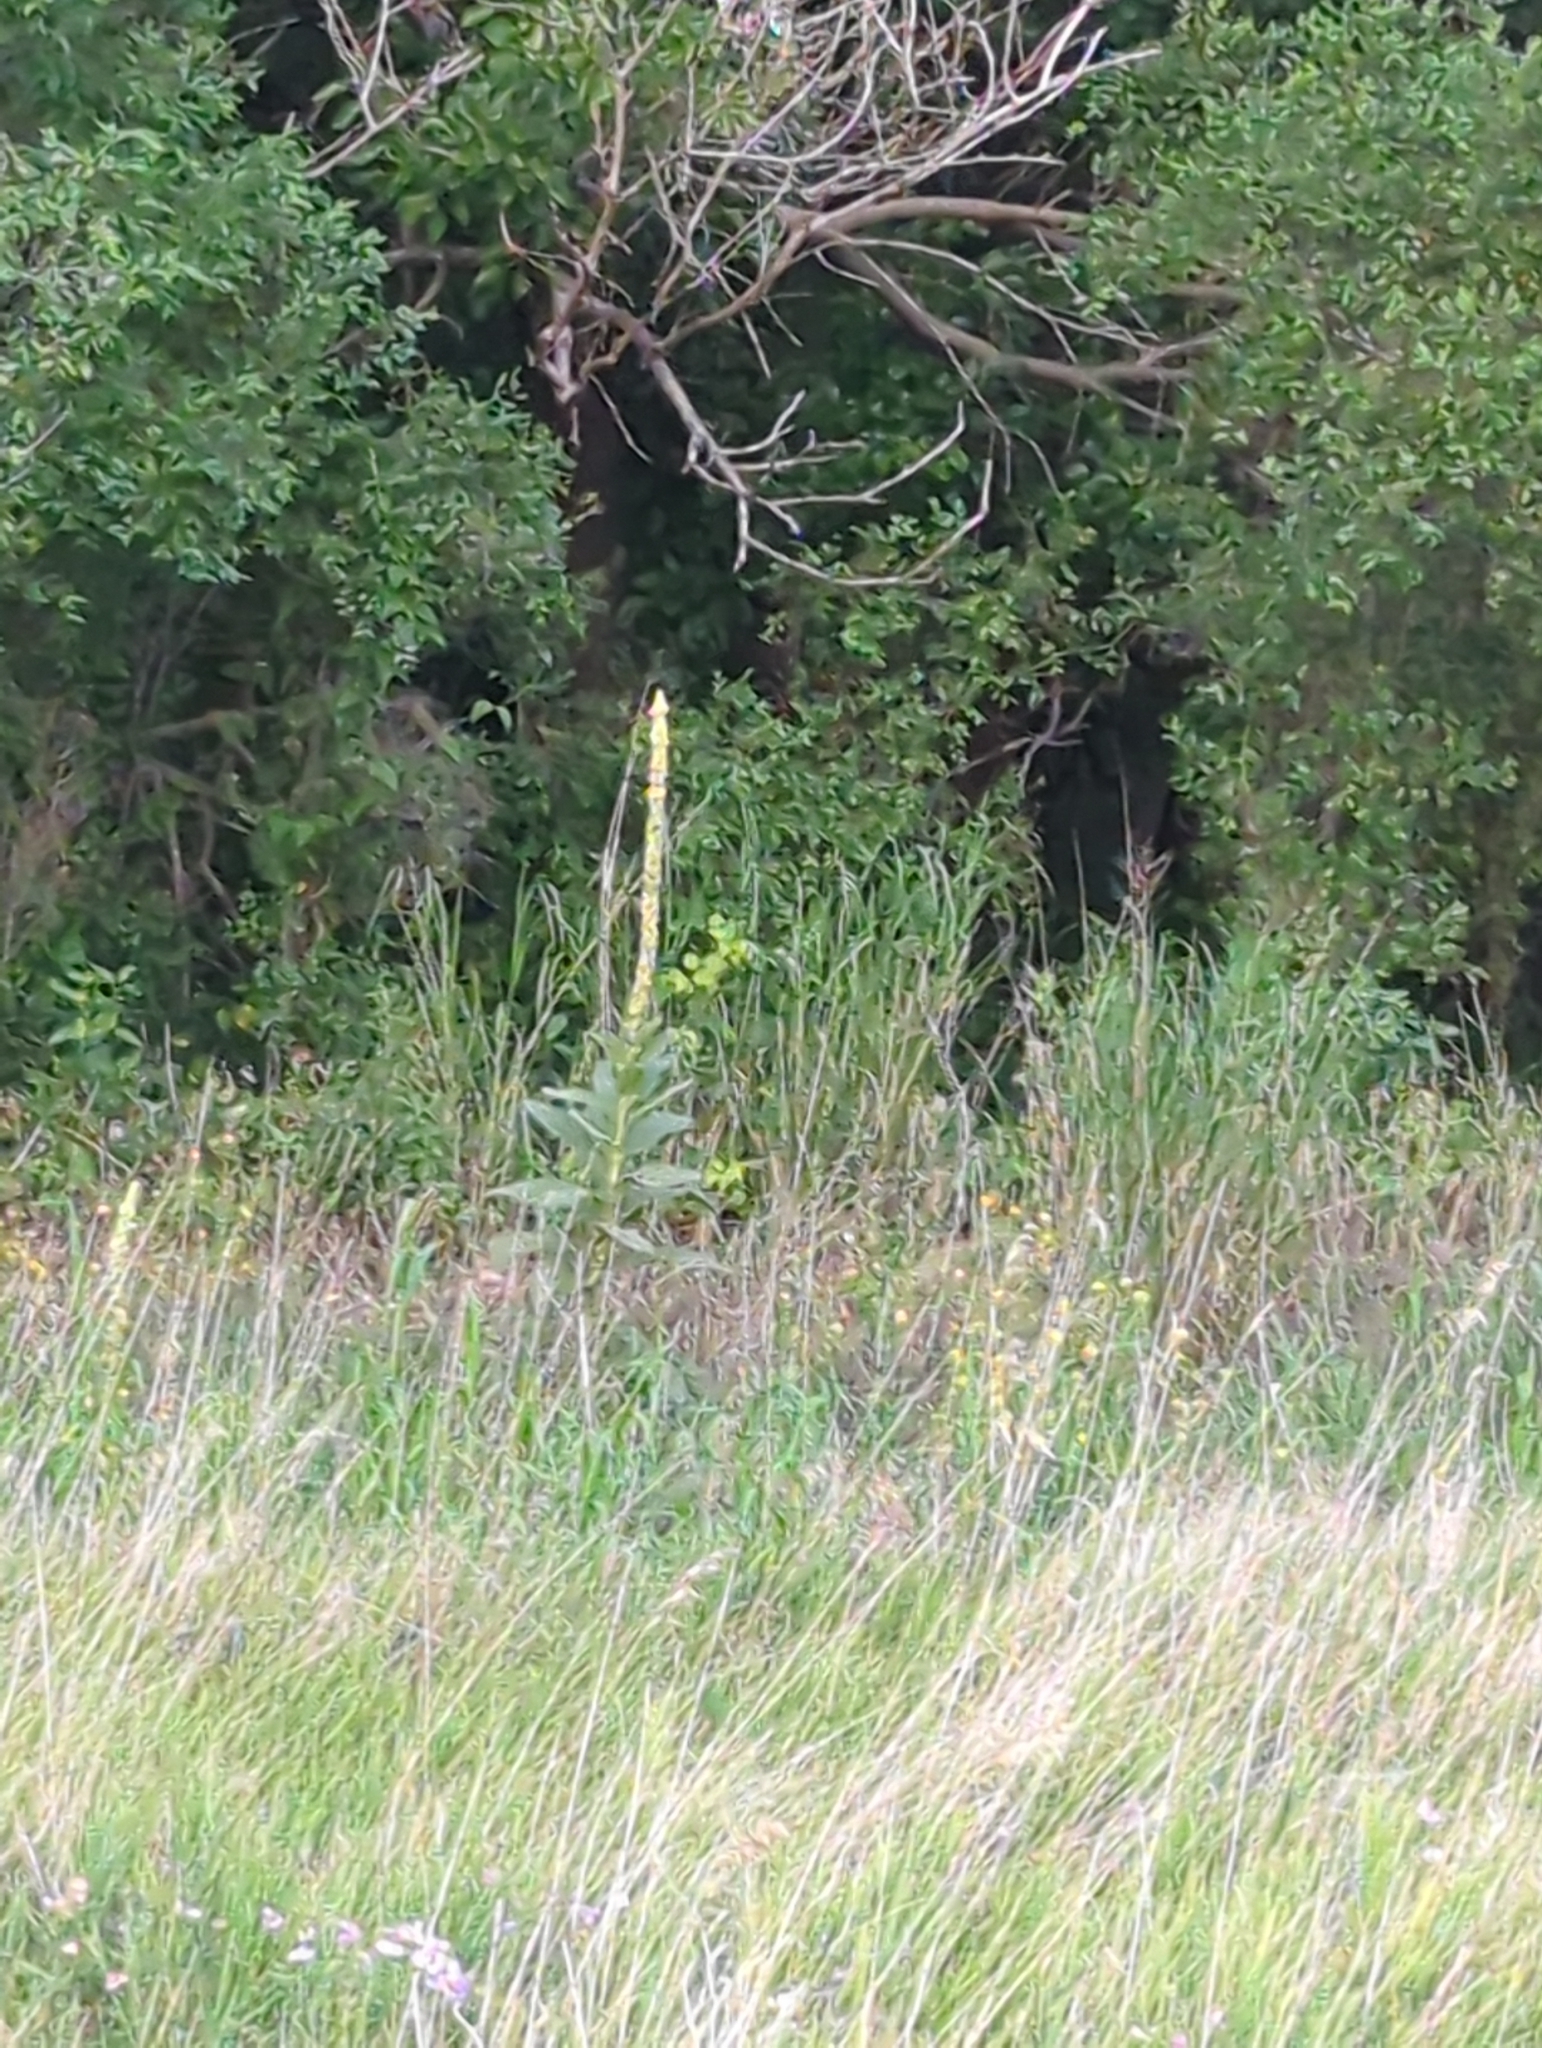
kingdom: Plantae
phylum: Tracheophyta
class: Magnoliopsida
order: Lamiales
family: Scrophulariaceae
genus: Verbascum
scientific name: Verbascum thapsus
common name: Common mullein
